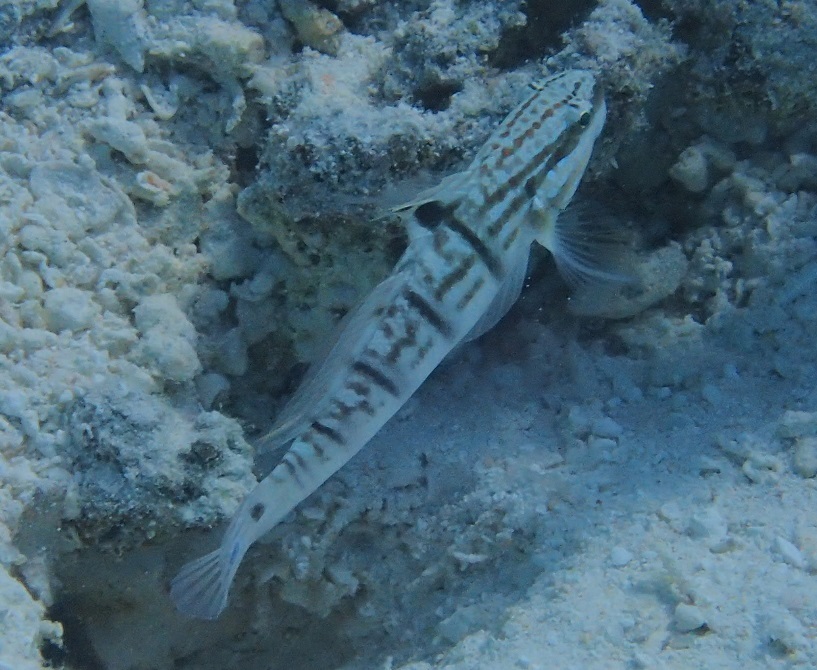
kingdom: Animalia
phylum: Chordata
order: Perciformes
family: Gobiidae
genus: Amblygobius
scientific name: Amblygobius phalaena
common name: Banded goby
